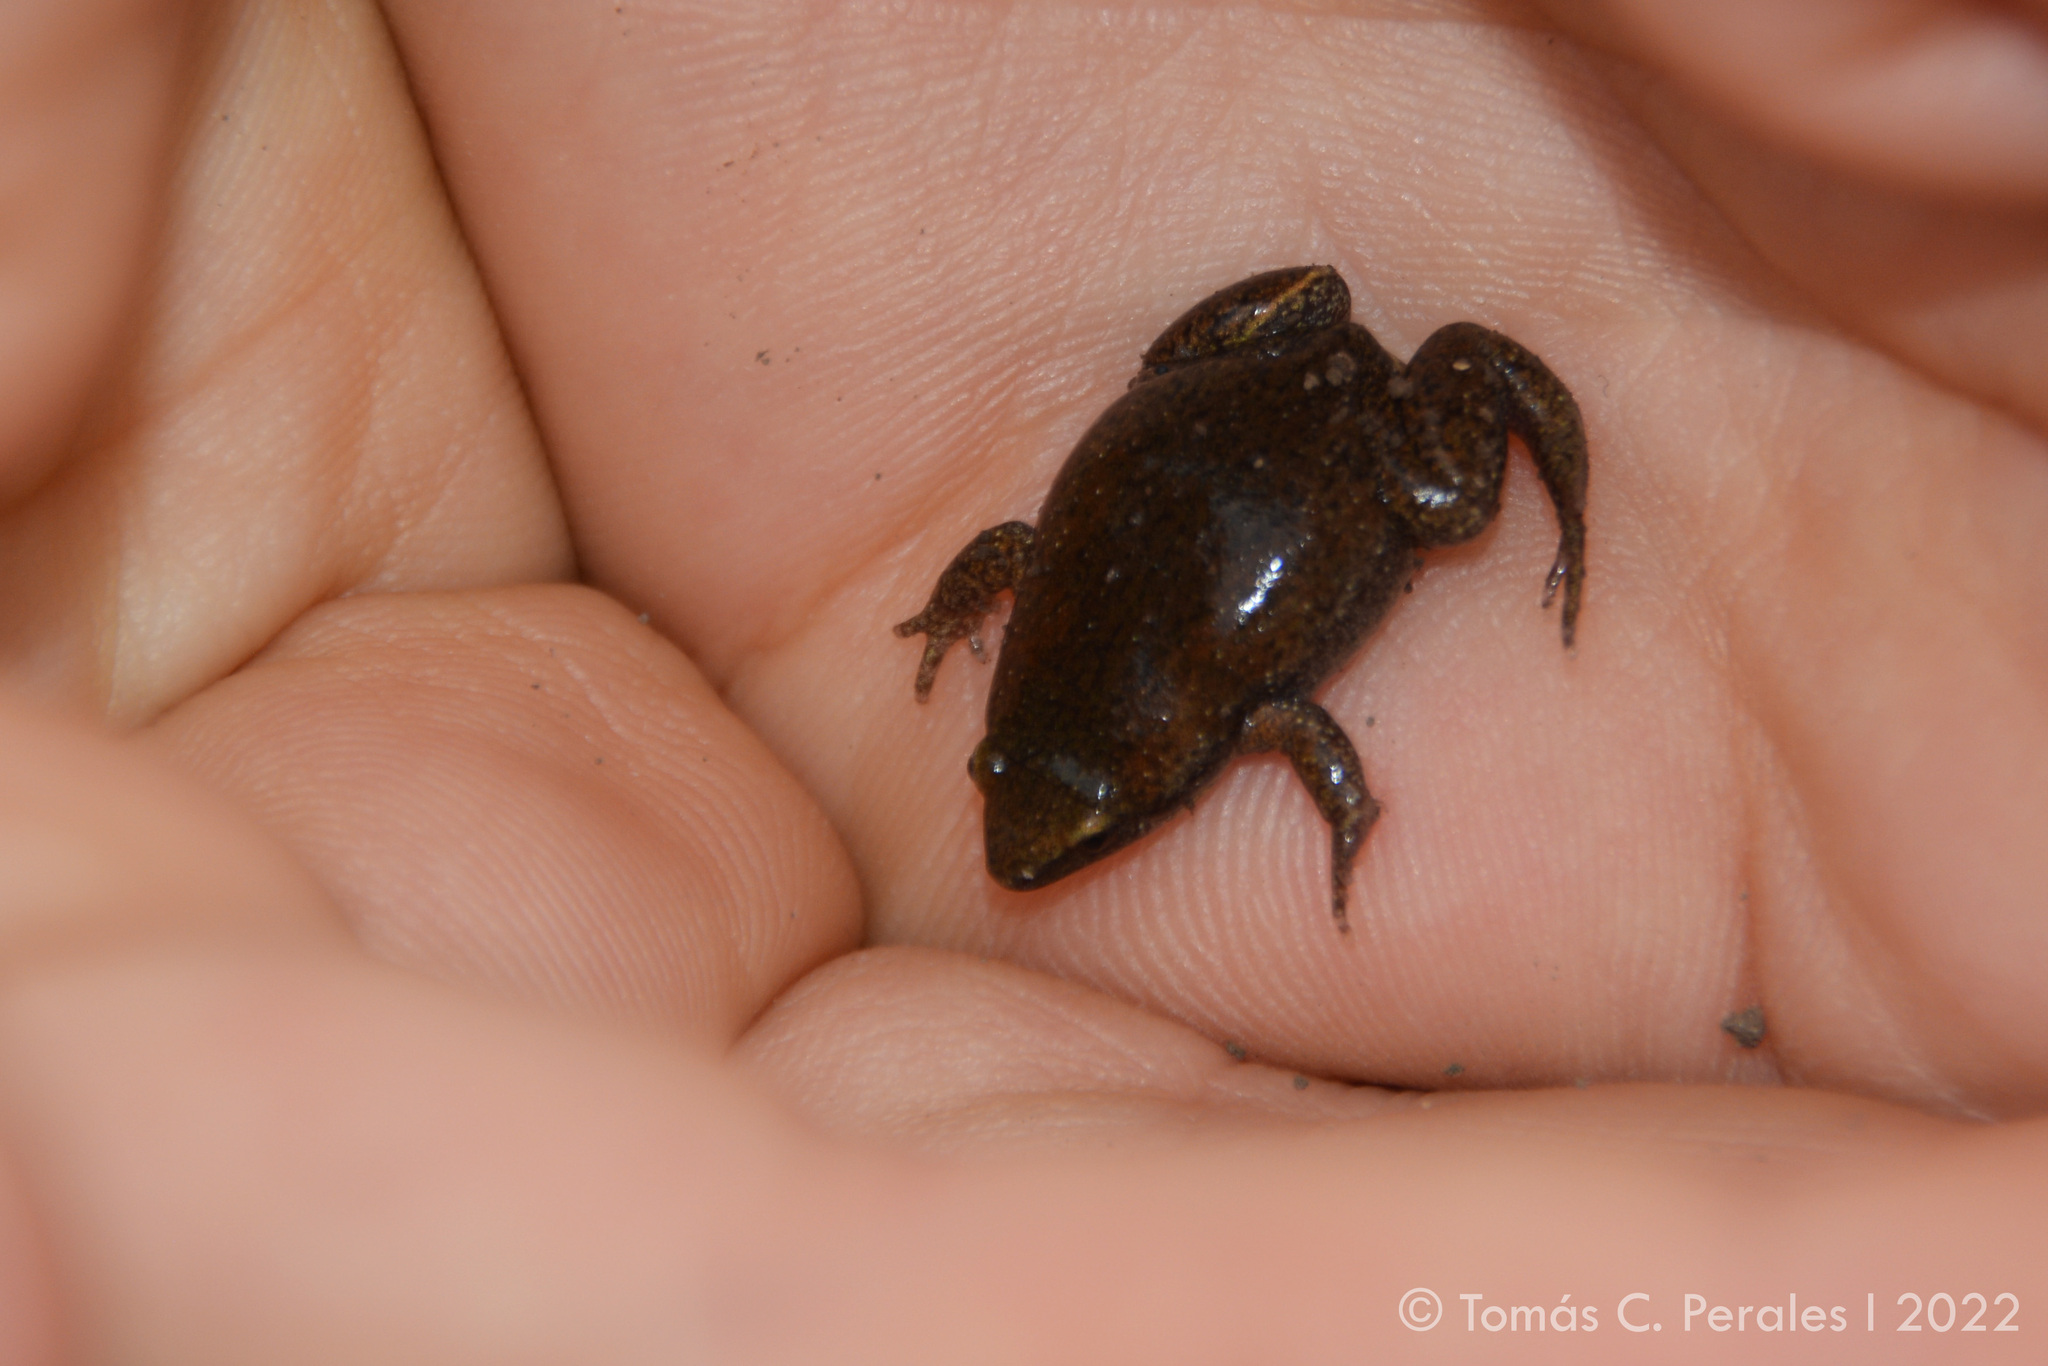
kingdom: Animalia
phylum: Chordata
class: Amphibia
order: Anura
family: Microhylidae
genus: Elachistocleis
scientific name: Elachistocleis bicolor
